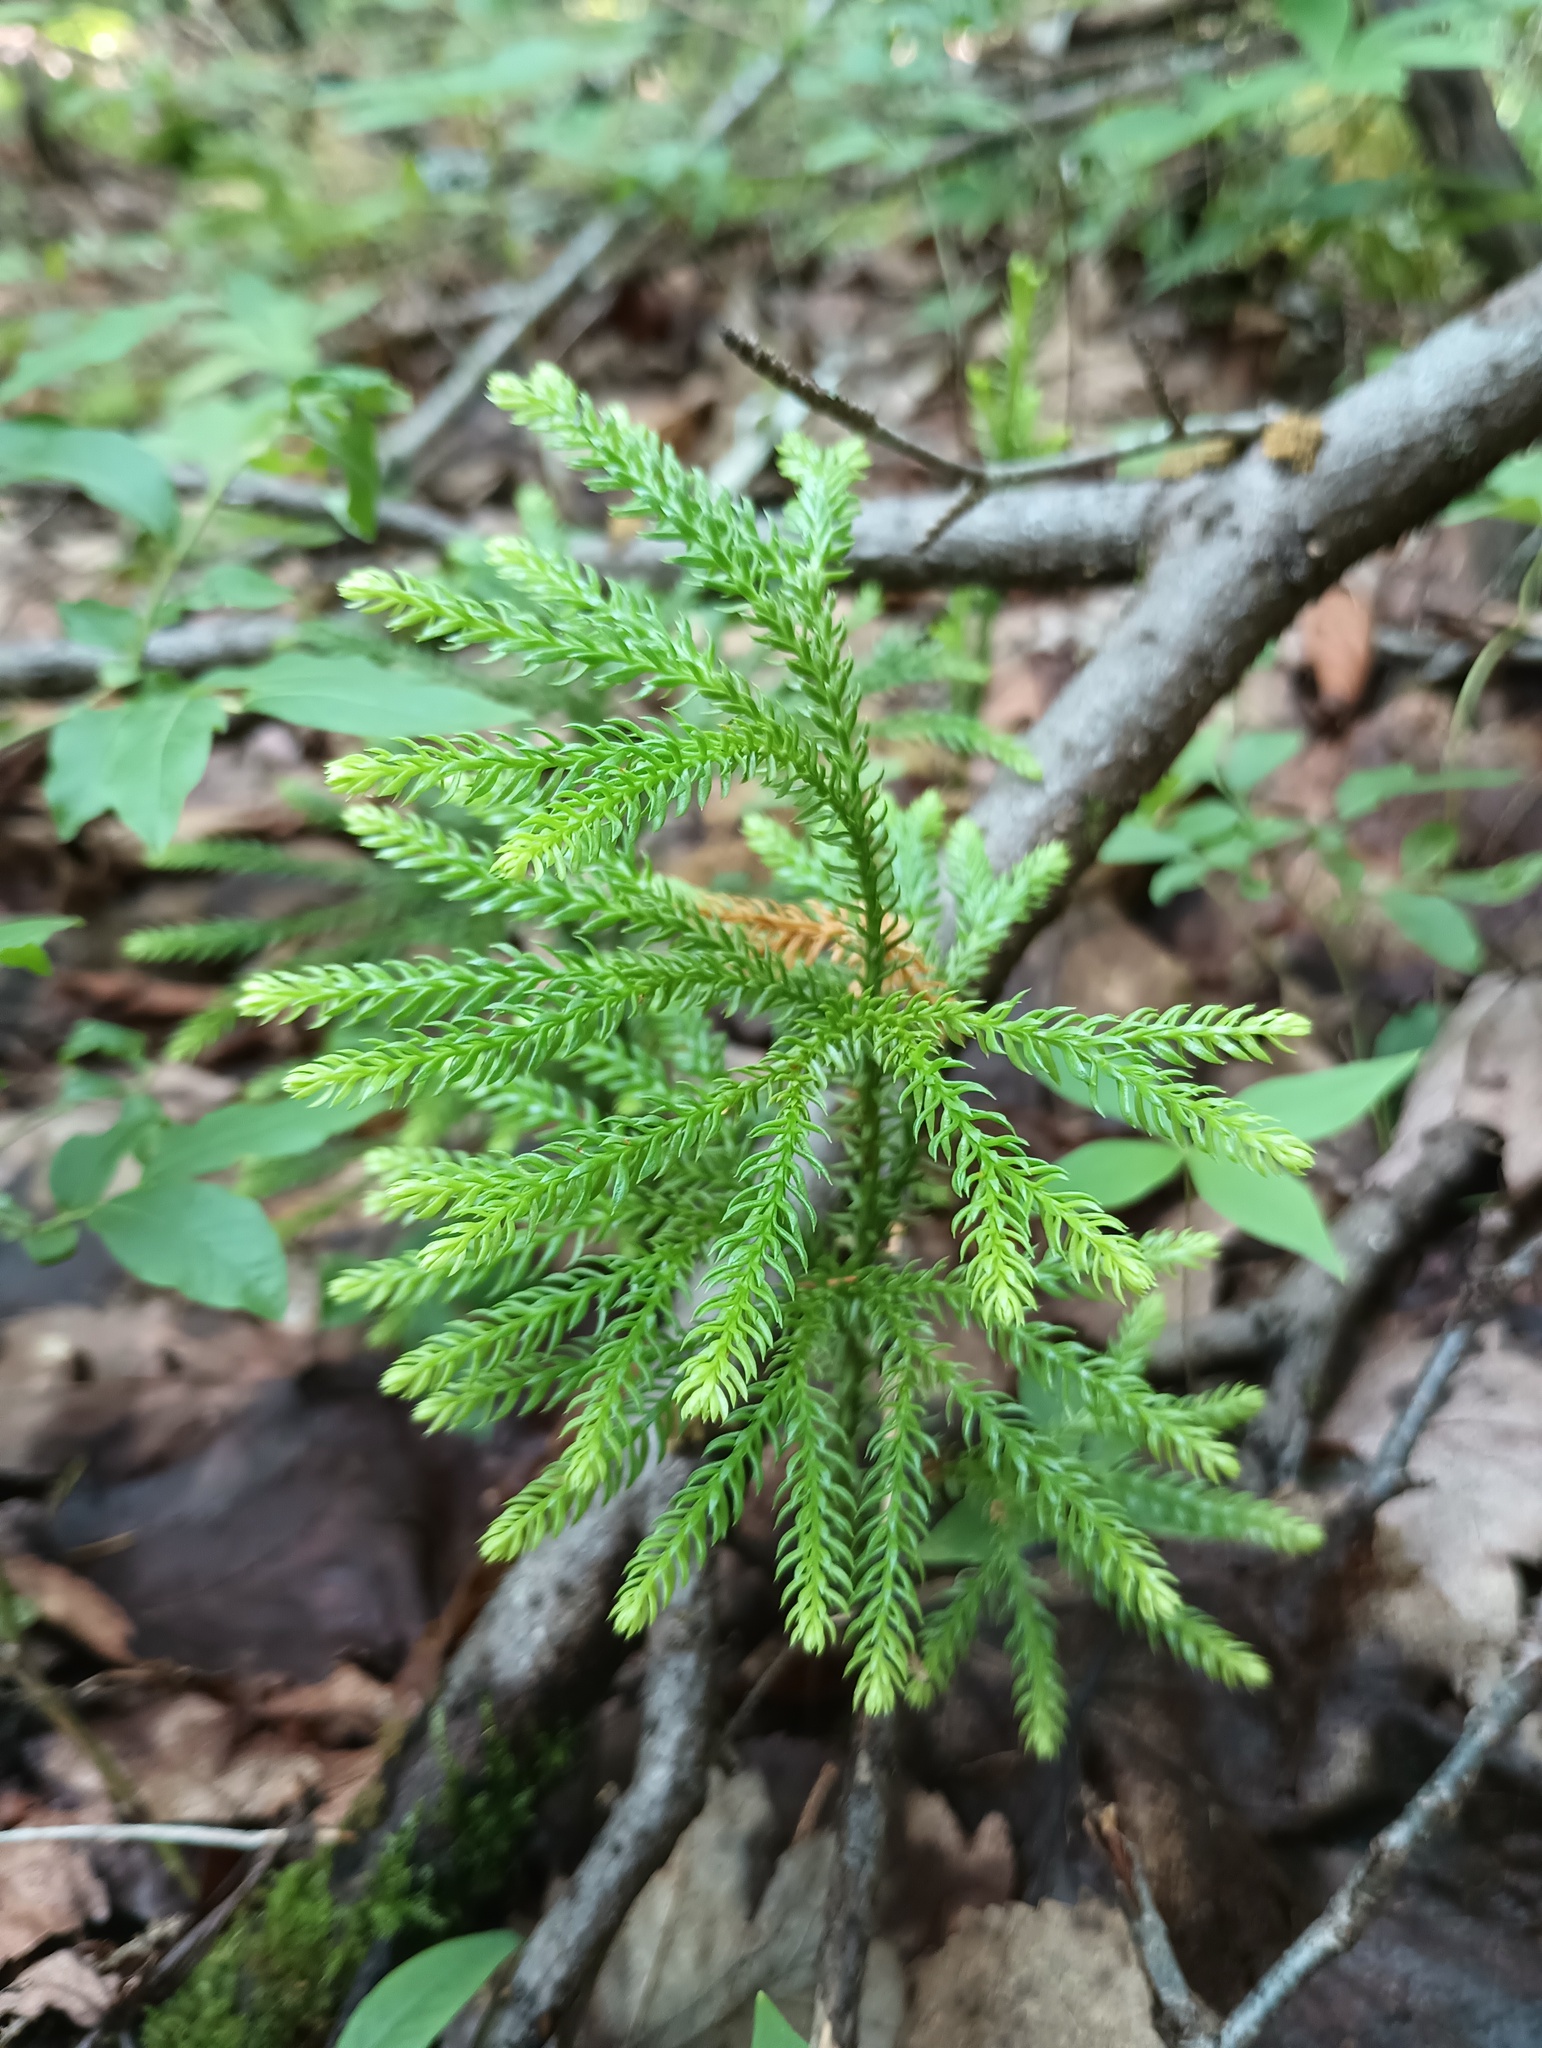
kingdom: Plantae
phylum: Tracheophyta
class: Lycopodiopsida
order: Lycopodiales
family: Lycopodiaceae
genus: Dendrolycopodium
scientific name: Dendrolycopodium dendroideum
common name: Northern tree-clubmoss
